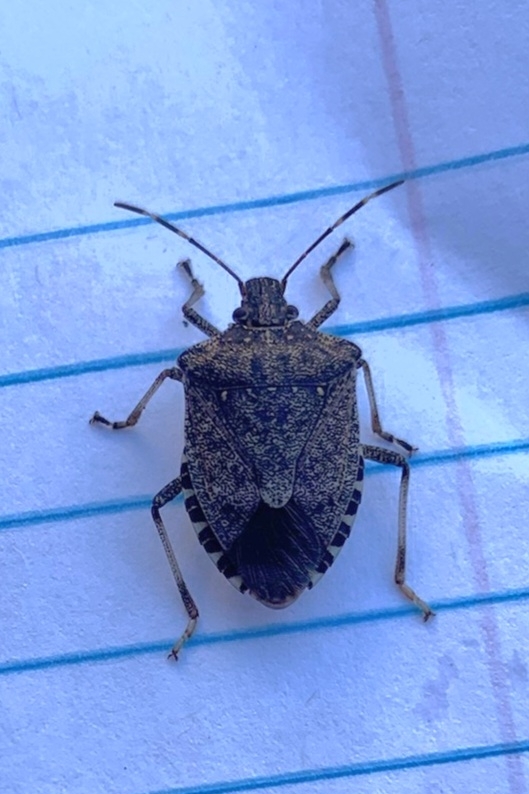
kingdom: Animalia
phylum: Arthropoda
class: Insecta
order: Hemiptera
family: Pentatomidae
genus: Halyomorpha
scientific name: Halyomorpha halys
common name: Brown marmorated stink bug
